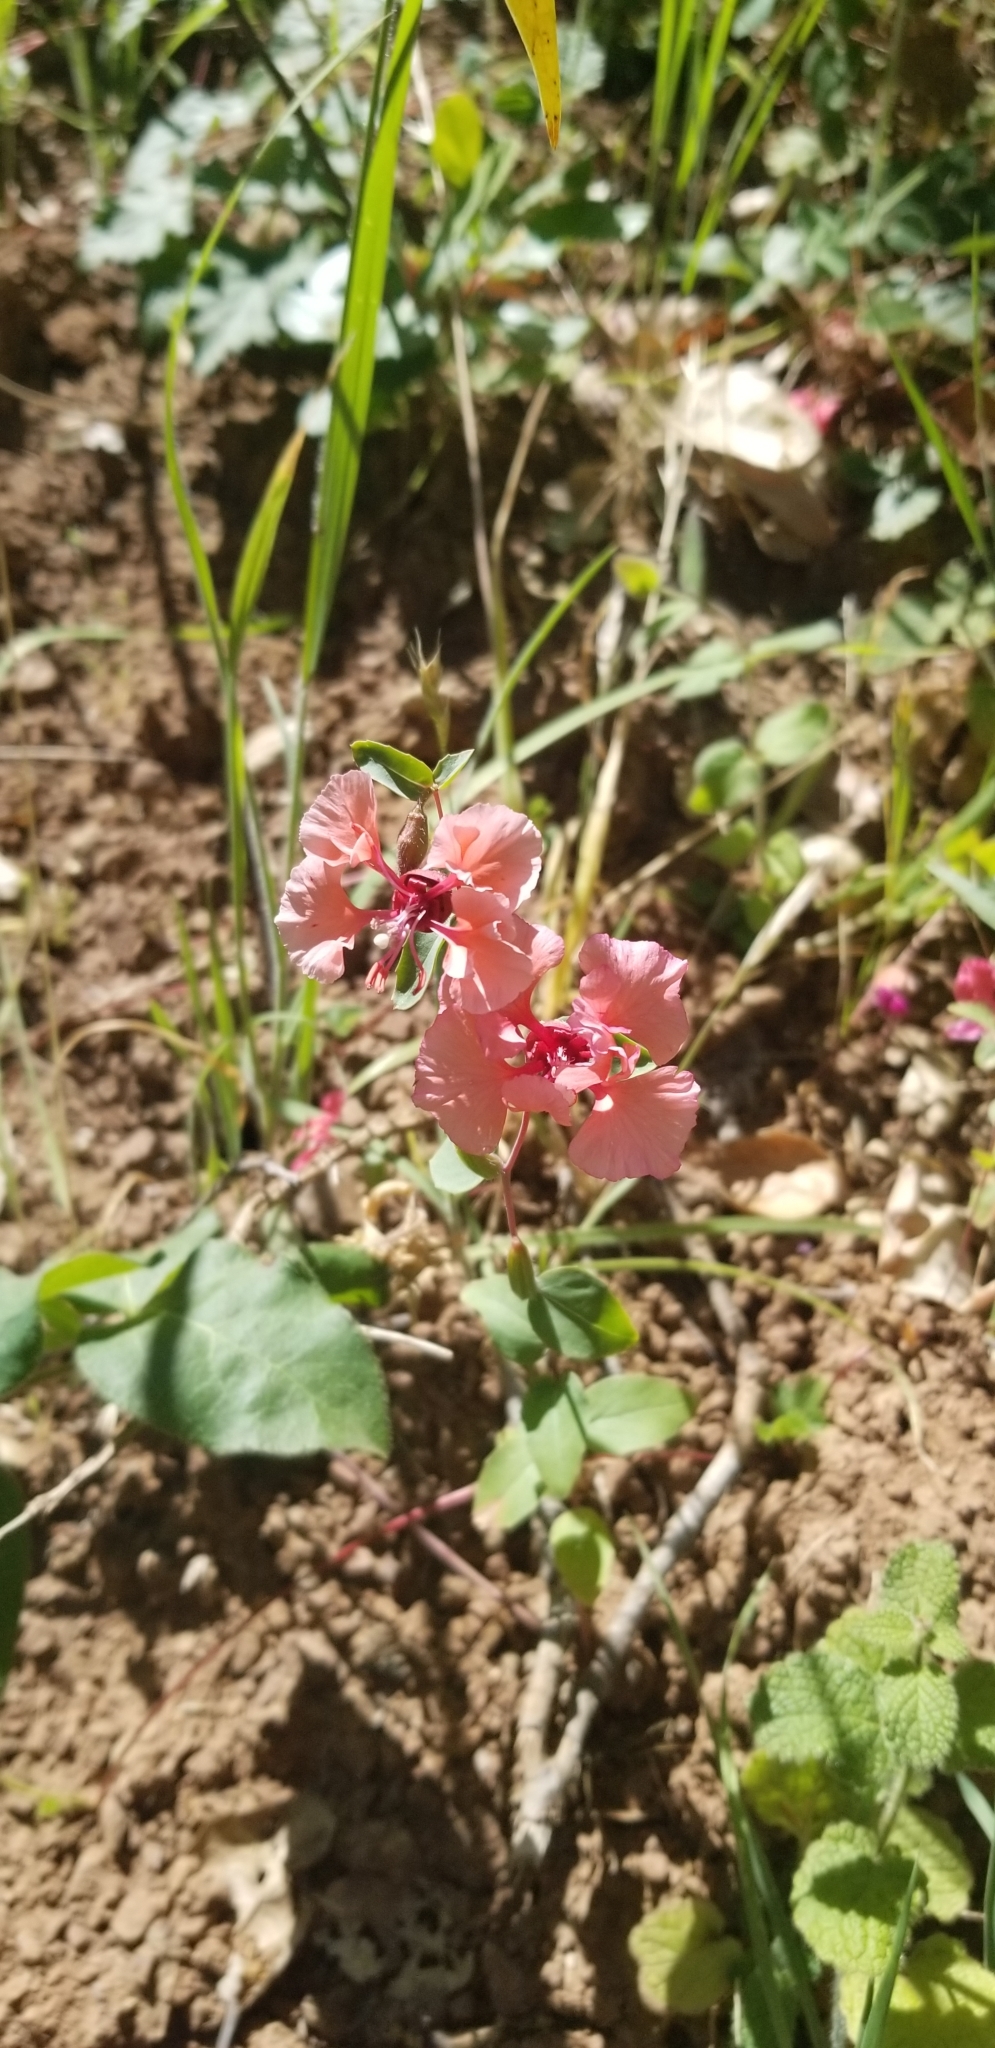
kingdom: Plantae
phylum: Tracheophyta
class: Magnoliopsida
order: Myrtales
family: Onagraceae
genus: Clarkia
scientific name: Clarkia unguiculata
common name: Clarkia
